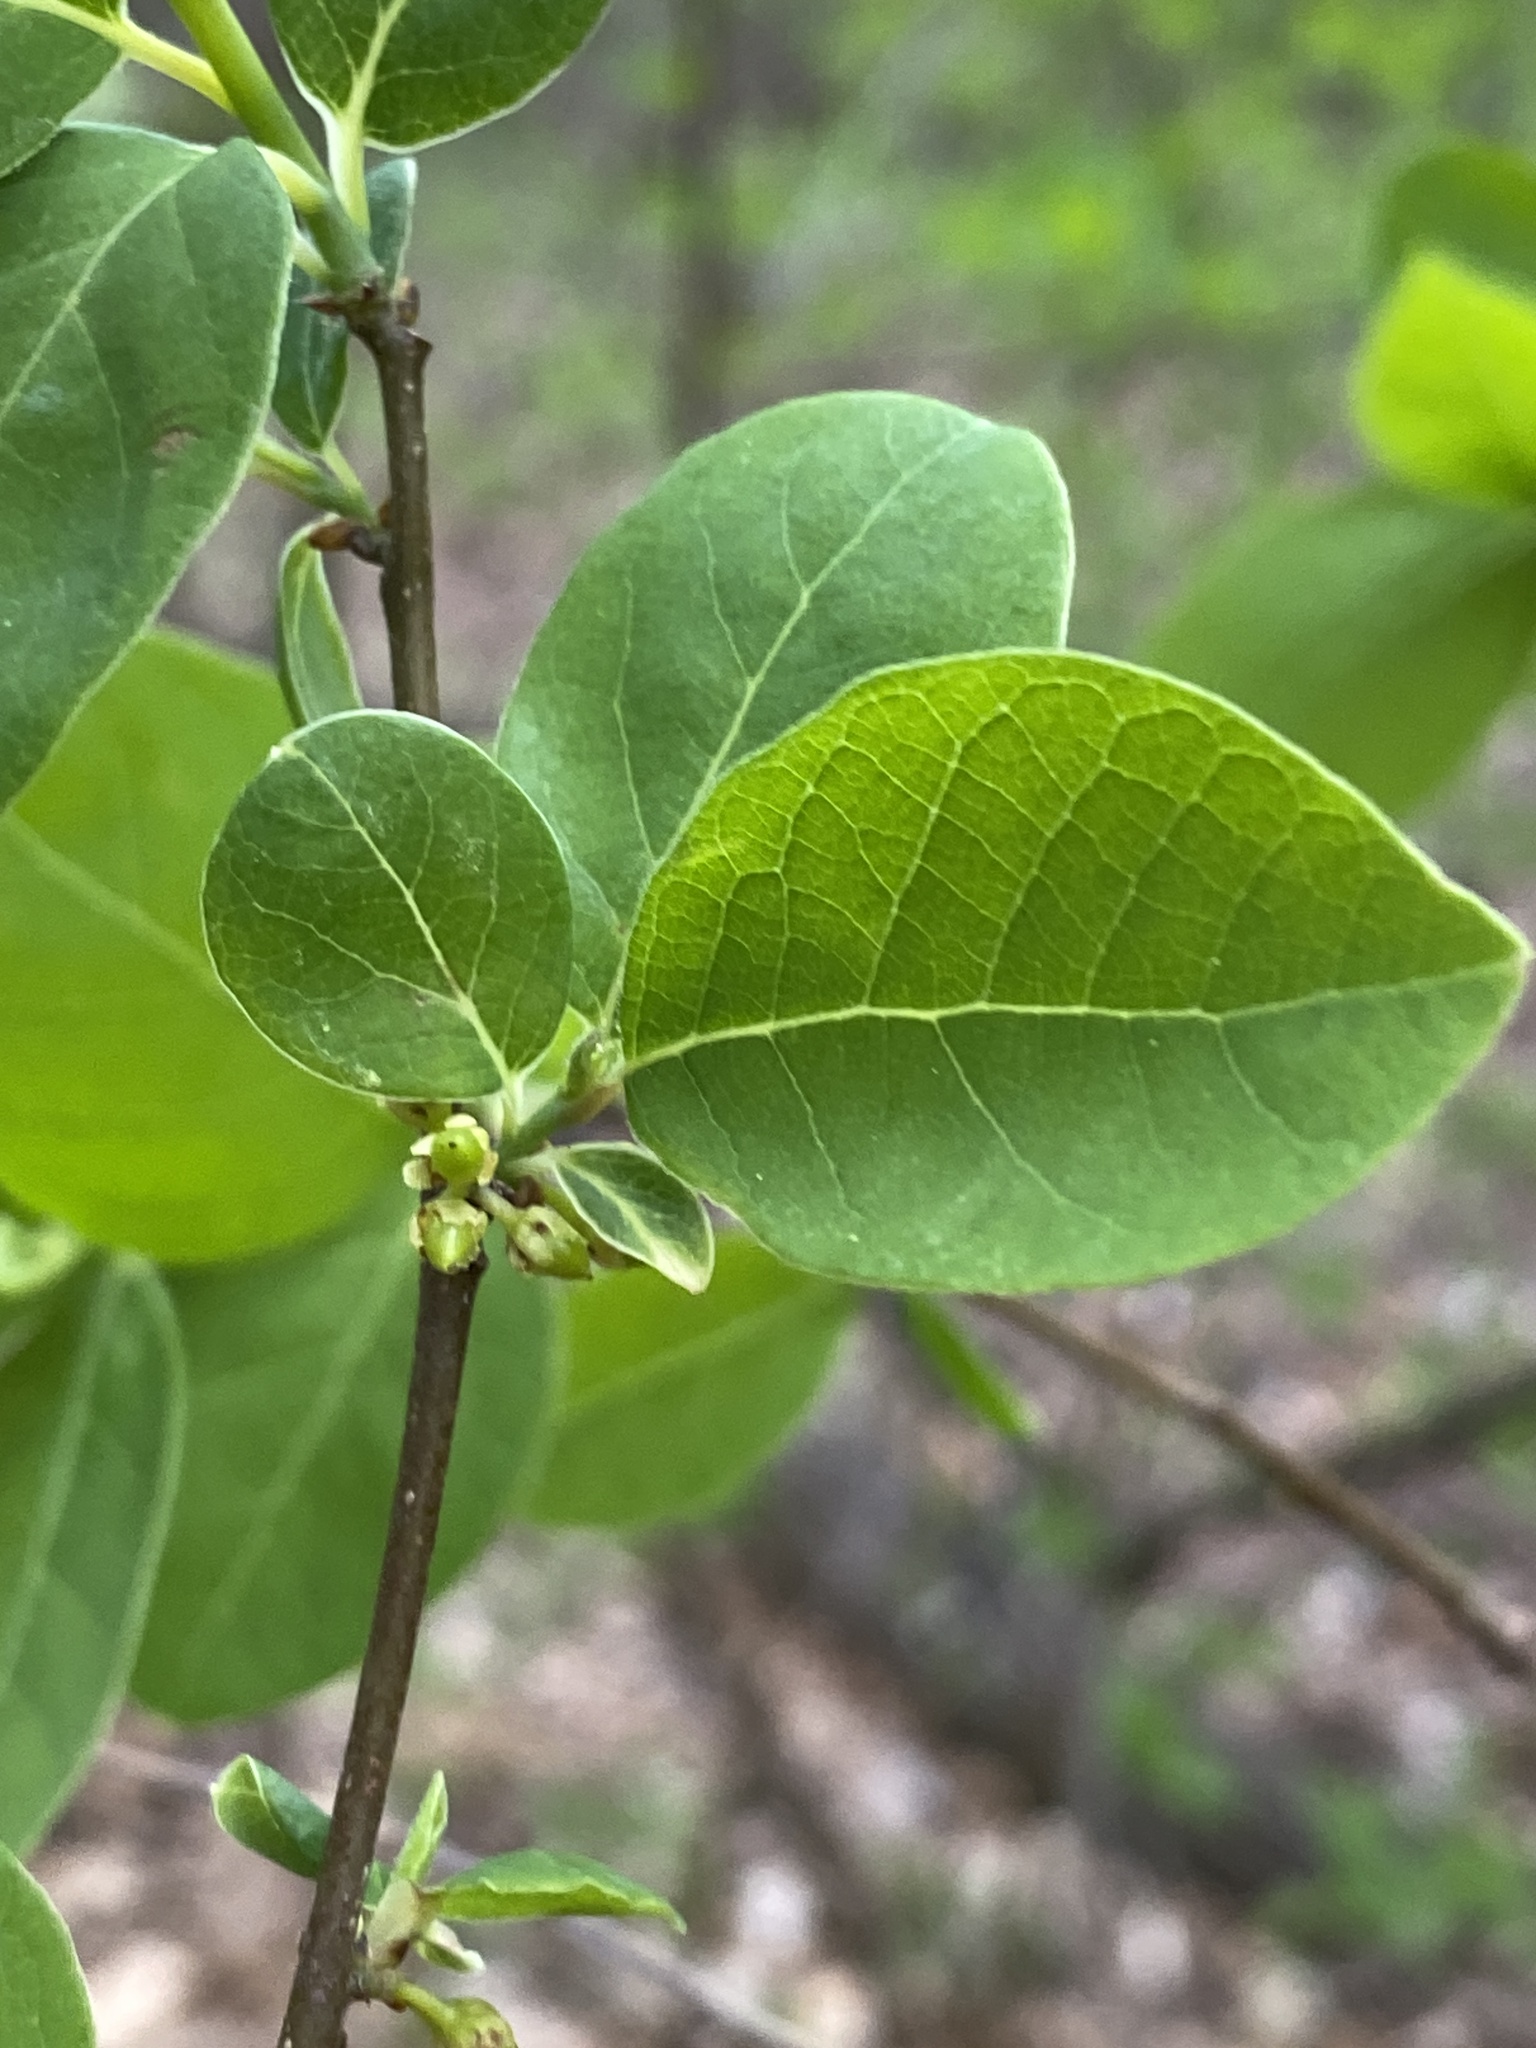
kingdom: Plantae
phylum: Tracheophyta
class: Magnoliopsida
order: Laurales
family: Lauraceae
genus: Lindera
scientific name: Lindera benzoin
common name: Spicebush
